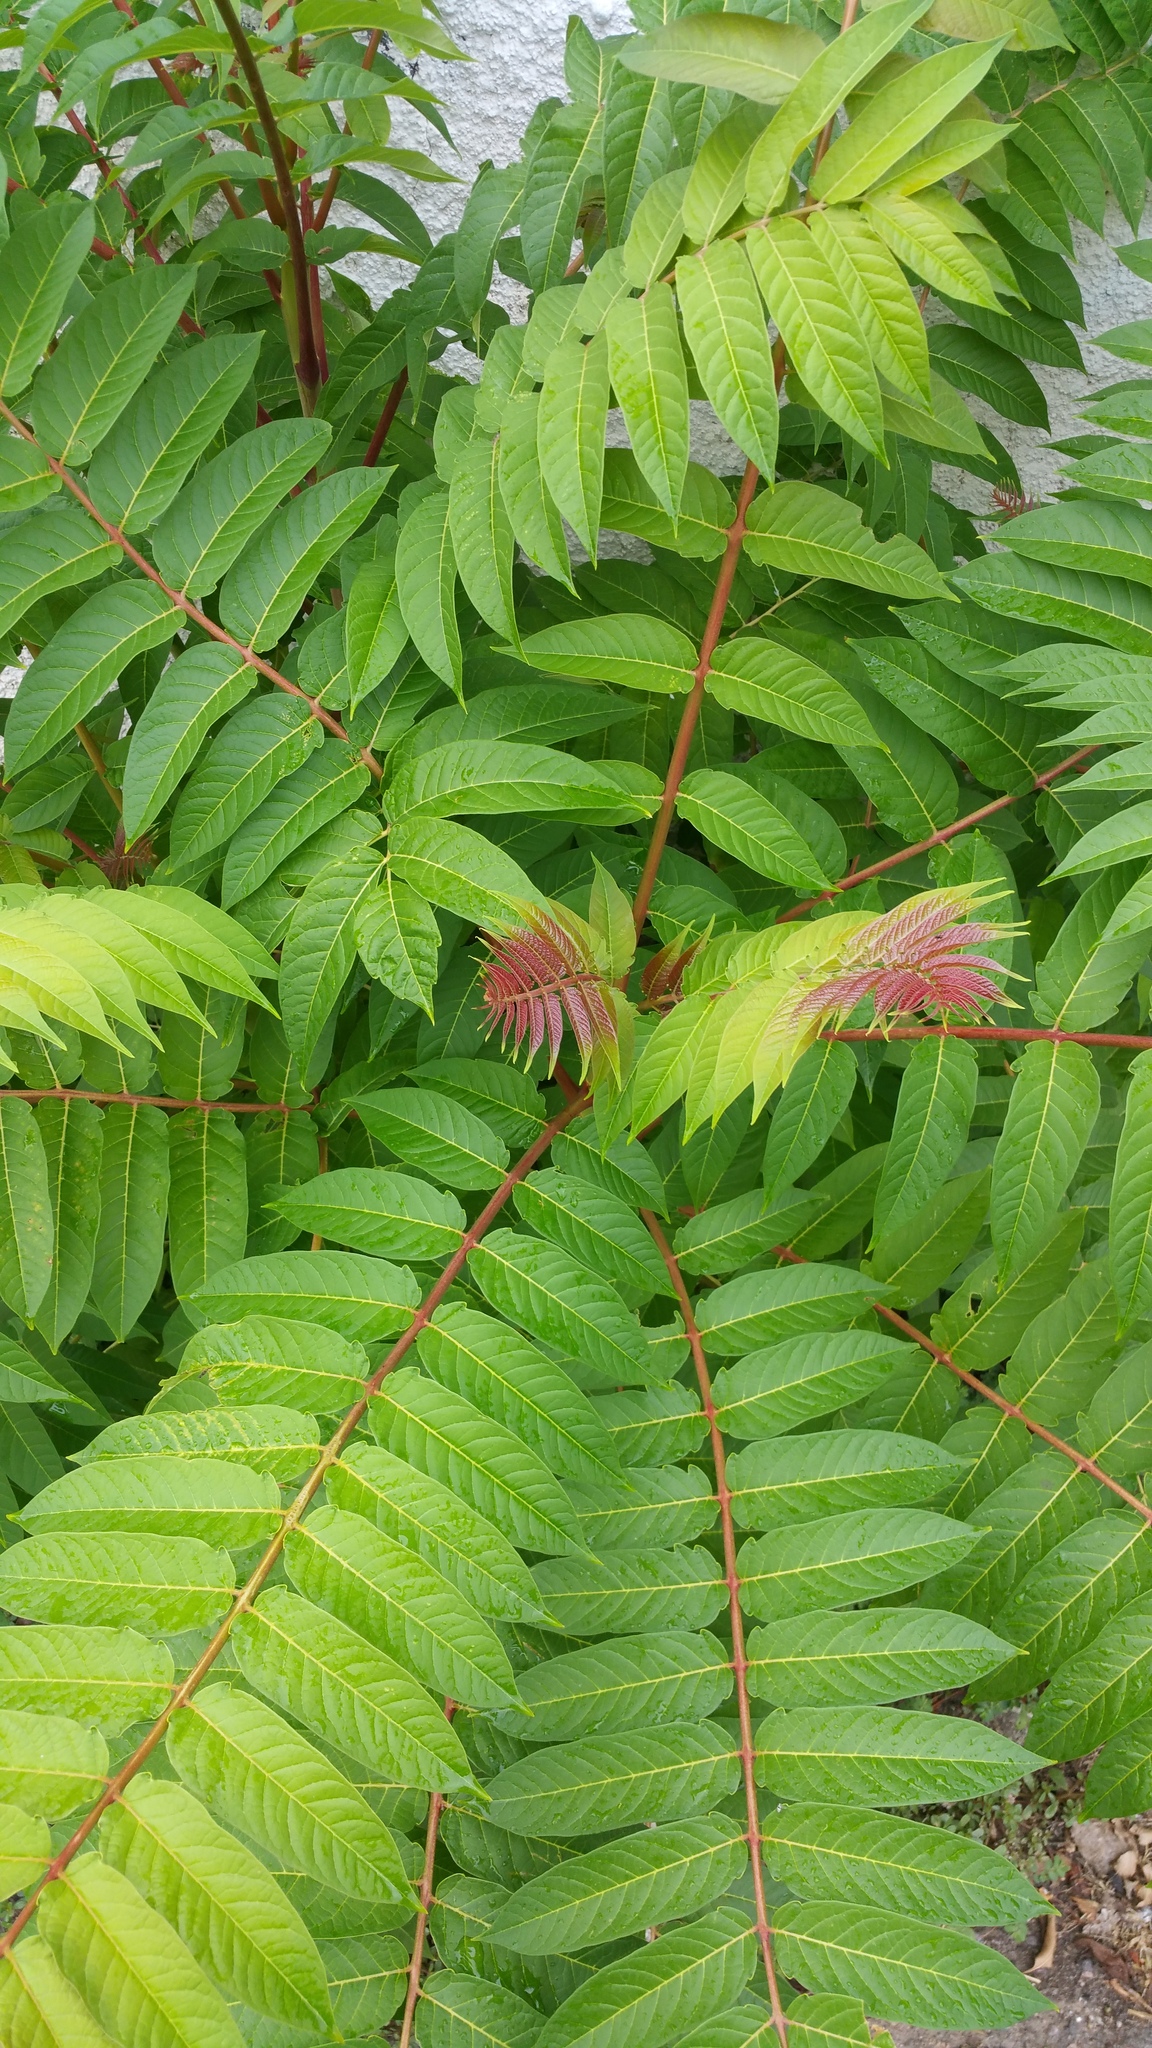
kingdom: Plantae
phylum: Tracheophyta
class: Magnoliopsida
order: Sapindales
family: Simaroubaceae
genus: Ailanthus
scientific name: Ailanthus altissima
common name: Tree-of-heaven
